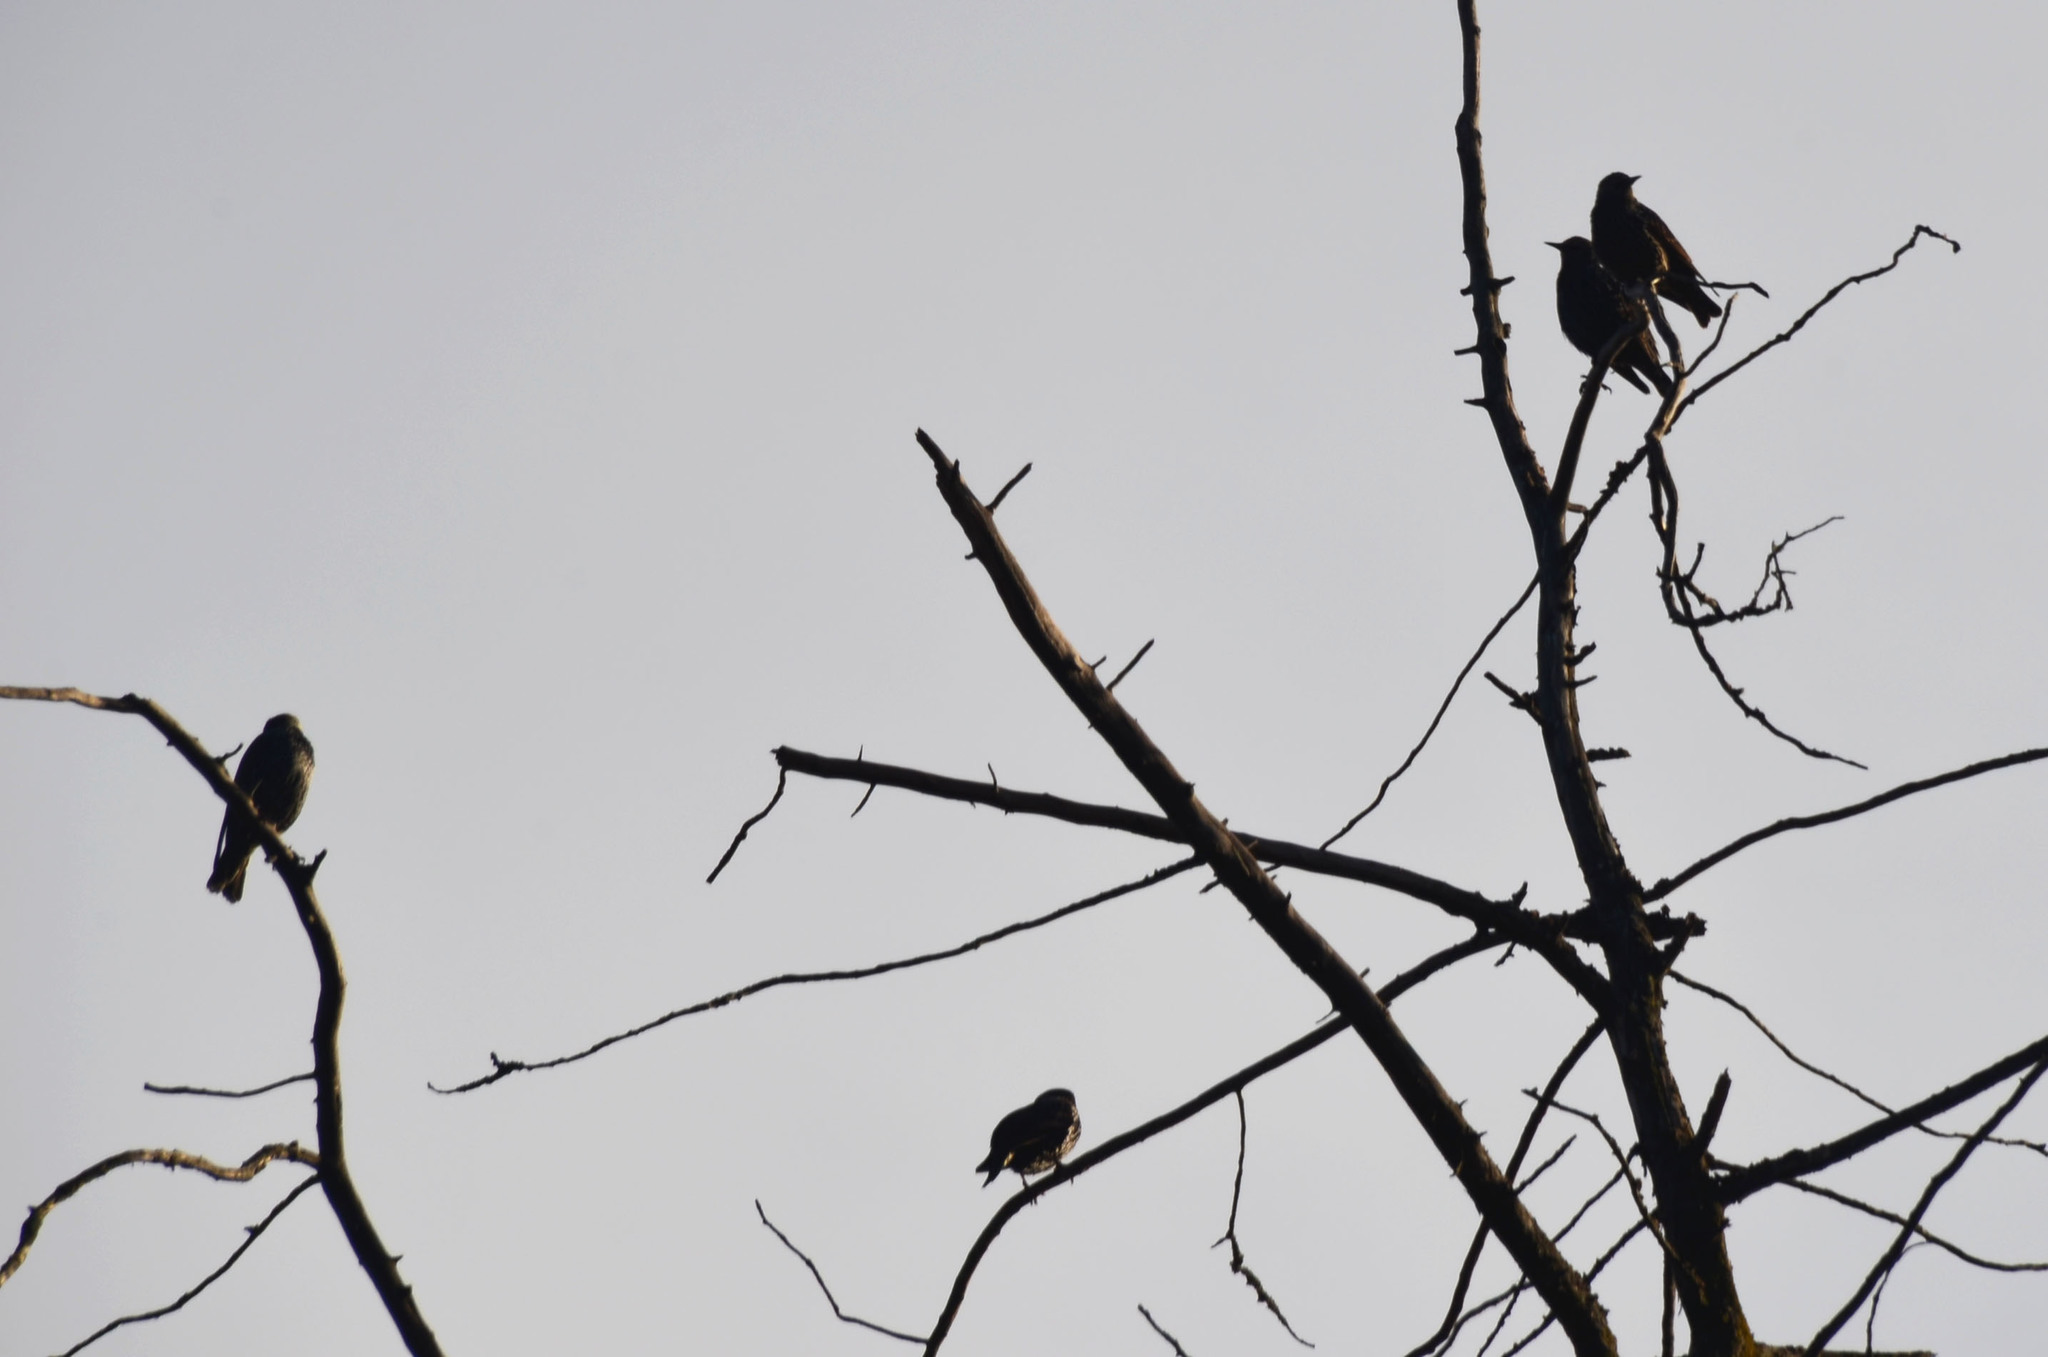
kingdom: Animalia
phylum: Chordata
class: Aves
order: Passeriformes
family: Sturnidae
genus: Sturnus
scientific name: Sturnus vulgaris
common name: Common starling
